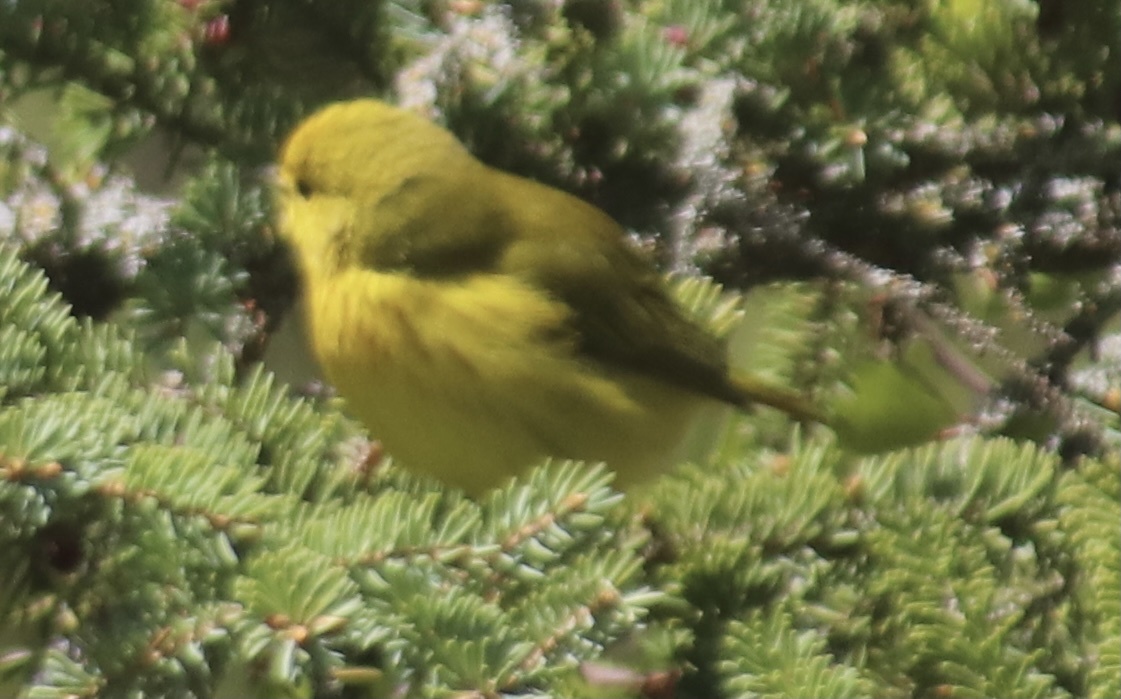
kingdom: Animalia
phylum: Chordata
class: Aves
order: Passeriformes
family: Parulidae
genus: Setophaga
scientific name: Setophaga petechia
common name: Yellow warbler
